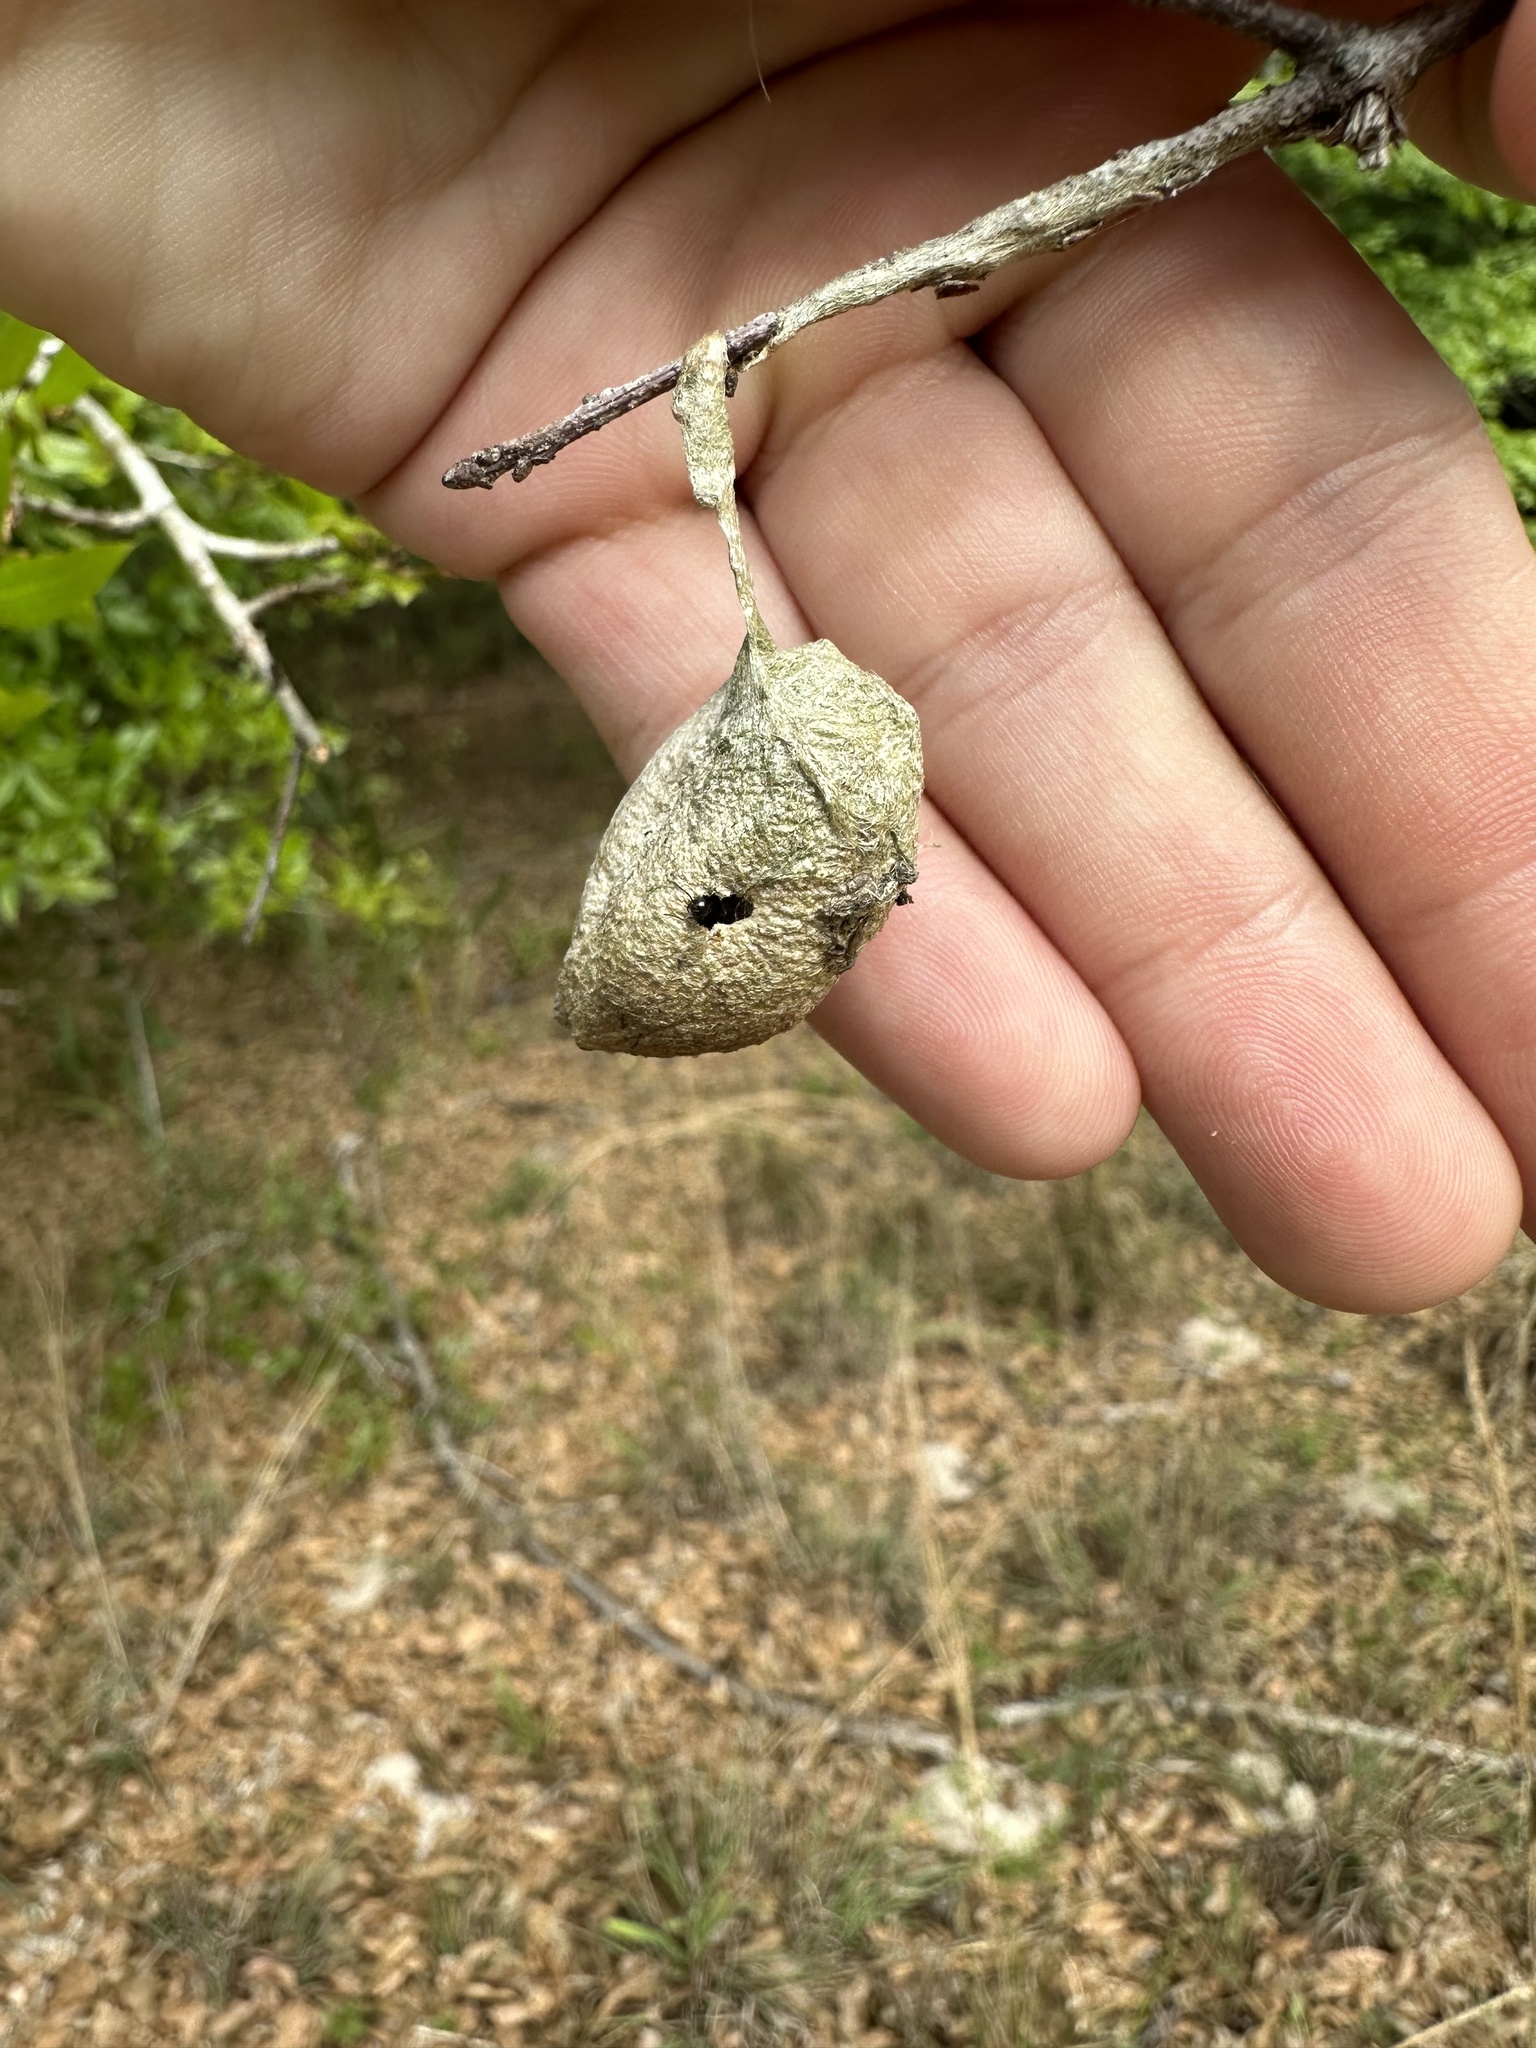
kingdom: Animalia
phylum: Arthropoda
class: Insecta
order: Lepidoptera
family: Saturniidae
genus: Antheraea
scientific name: Antheraea polyphemus
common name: Polyphemus moth
